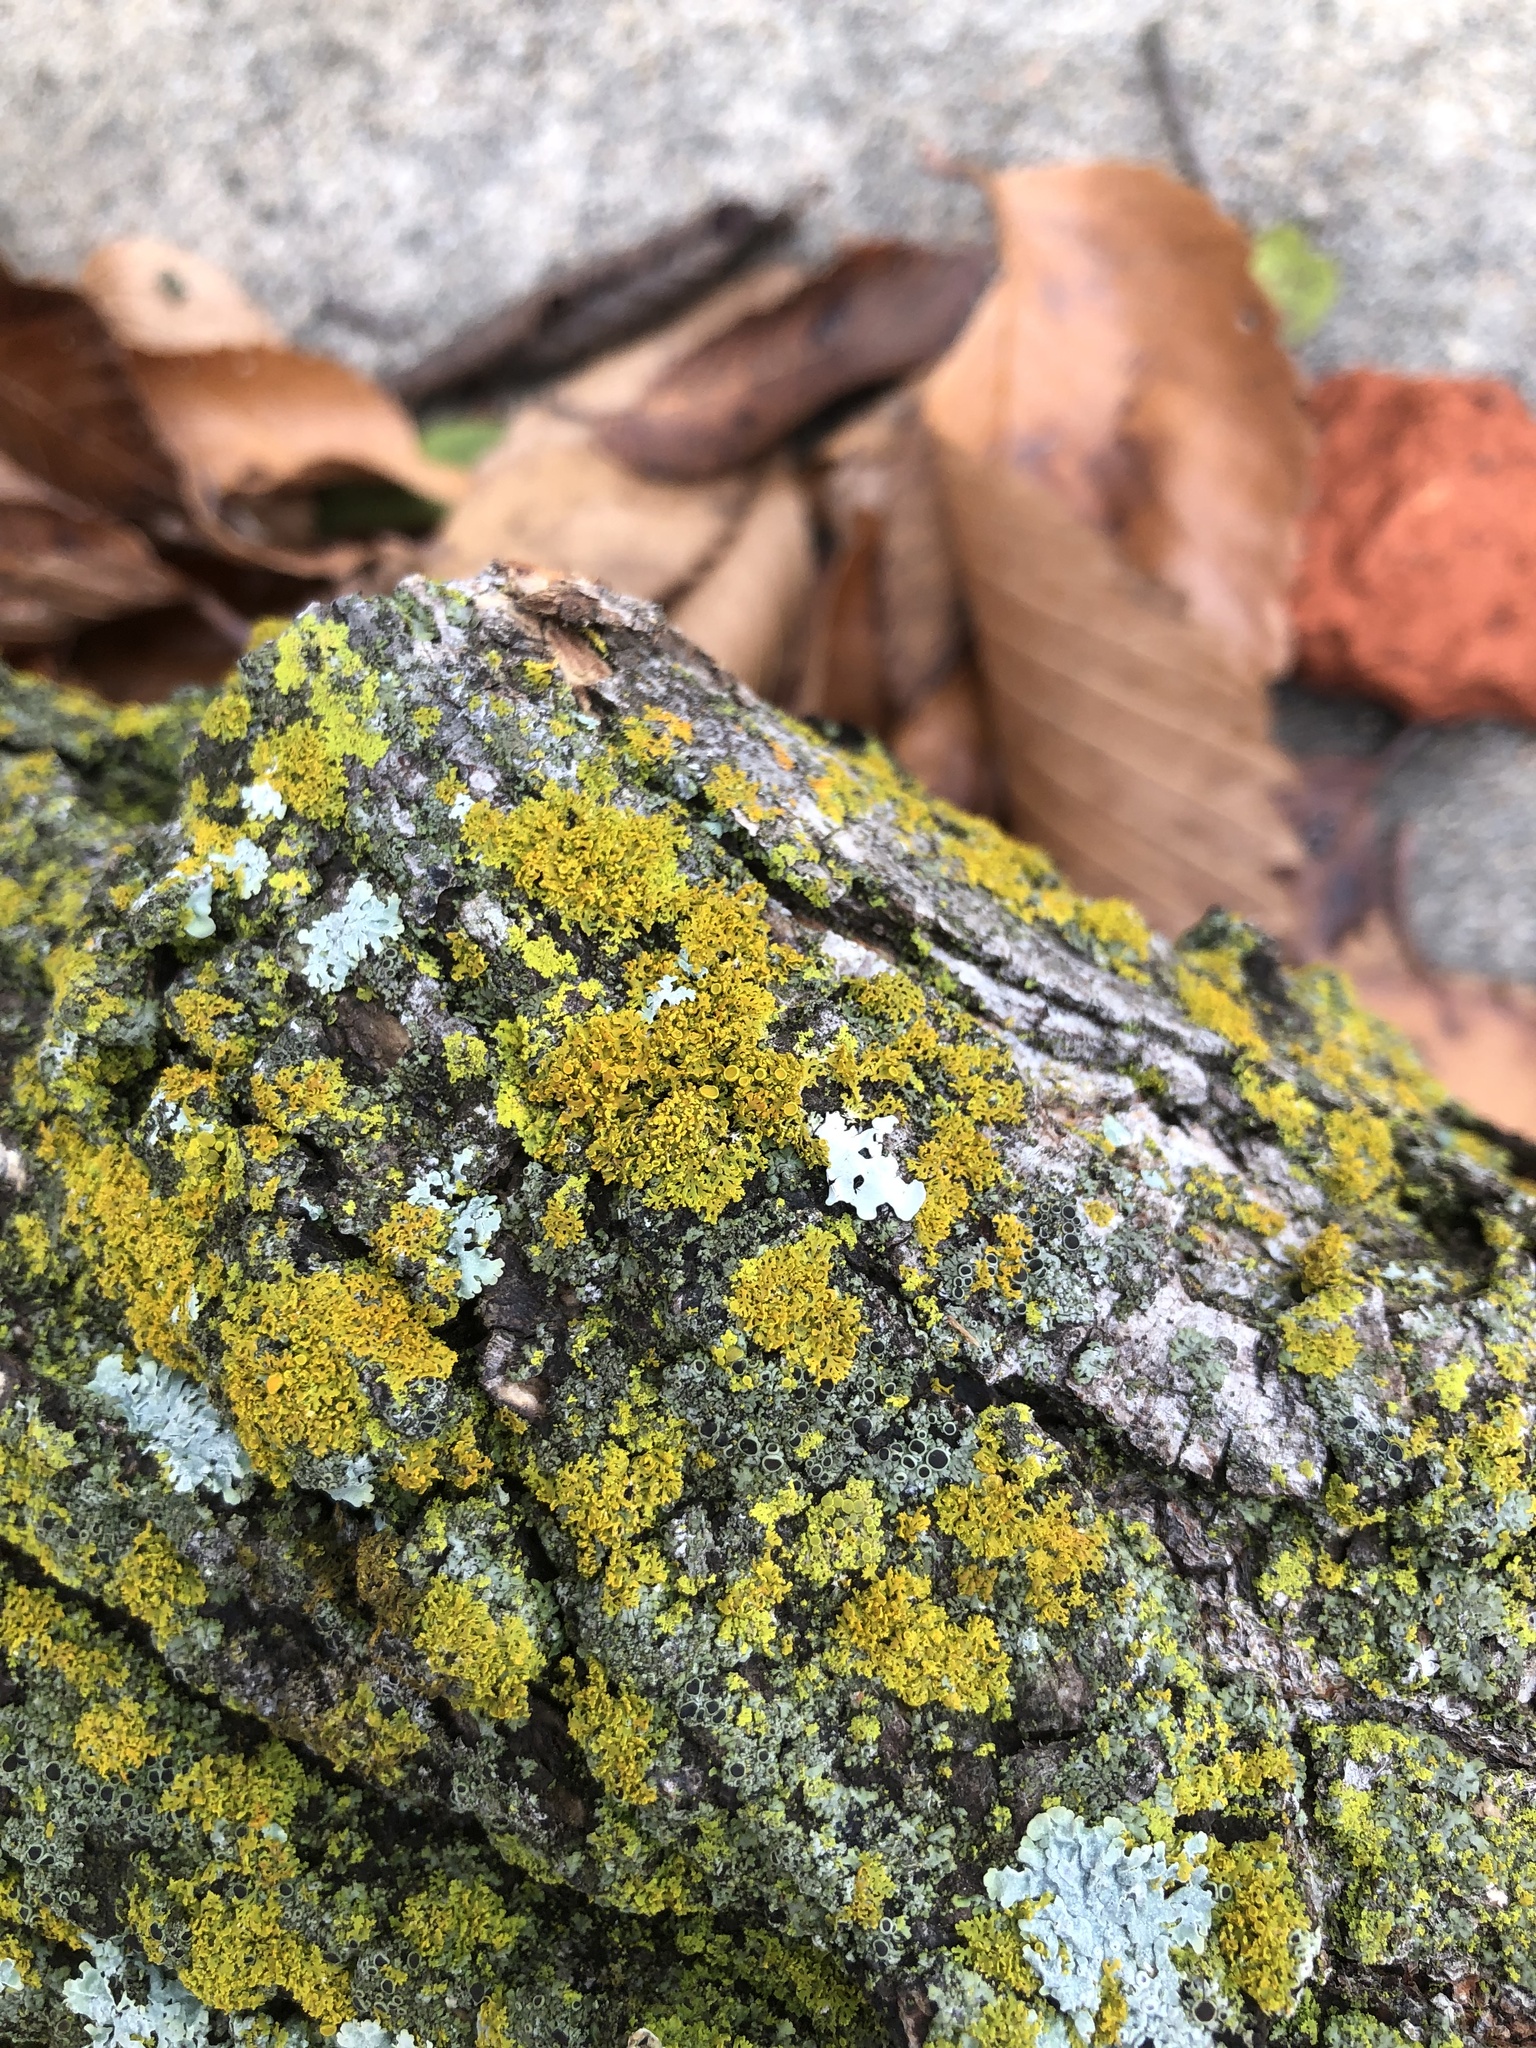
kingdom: Fungi
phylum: Ascomycota
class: Lecanoromycetes
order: Teloschistales
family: Teloschistaceae
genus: Gallowayella
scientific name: Gallowayella weberi
